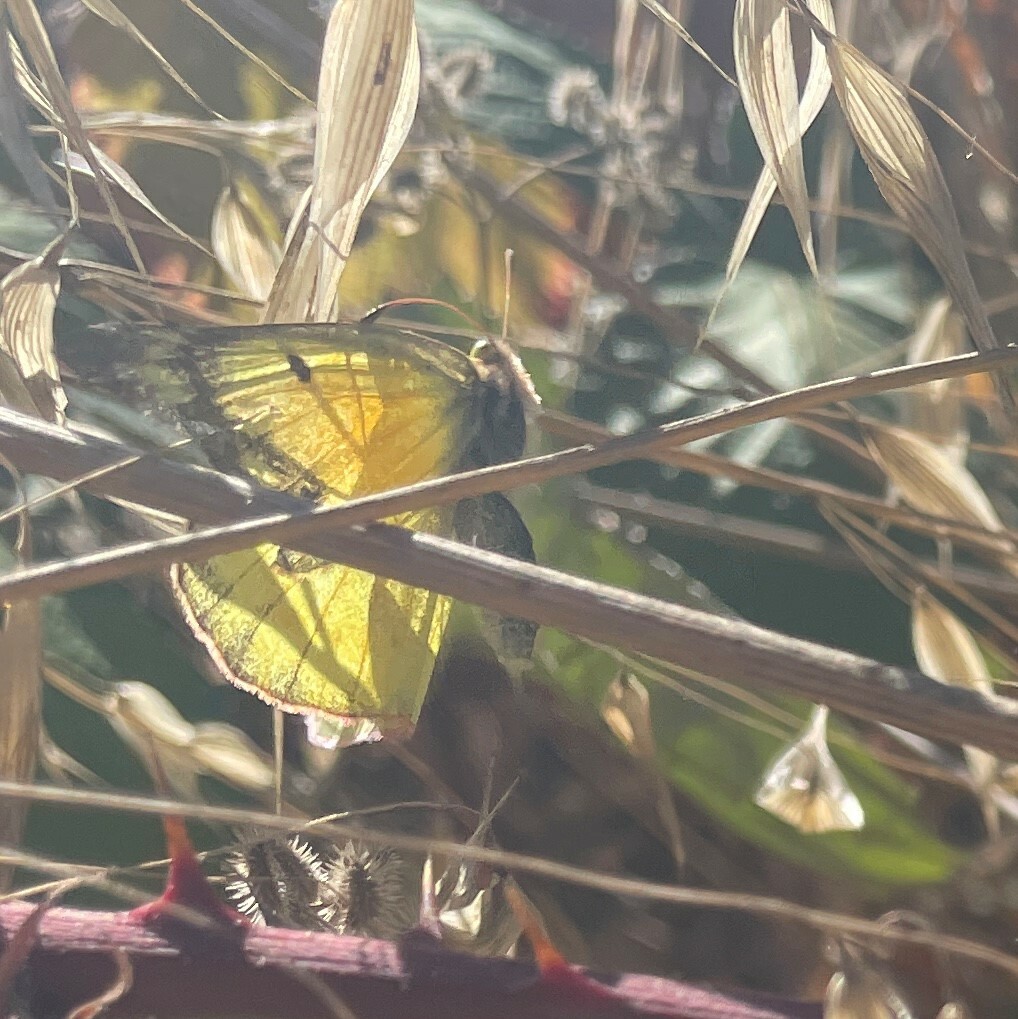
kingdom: Animalia
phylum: Arthropoda
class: Insecta
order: Lepidoptera
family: Pieridae
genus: Colias
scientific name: Colias eurytheme
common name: Alfalfa butterfly
